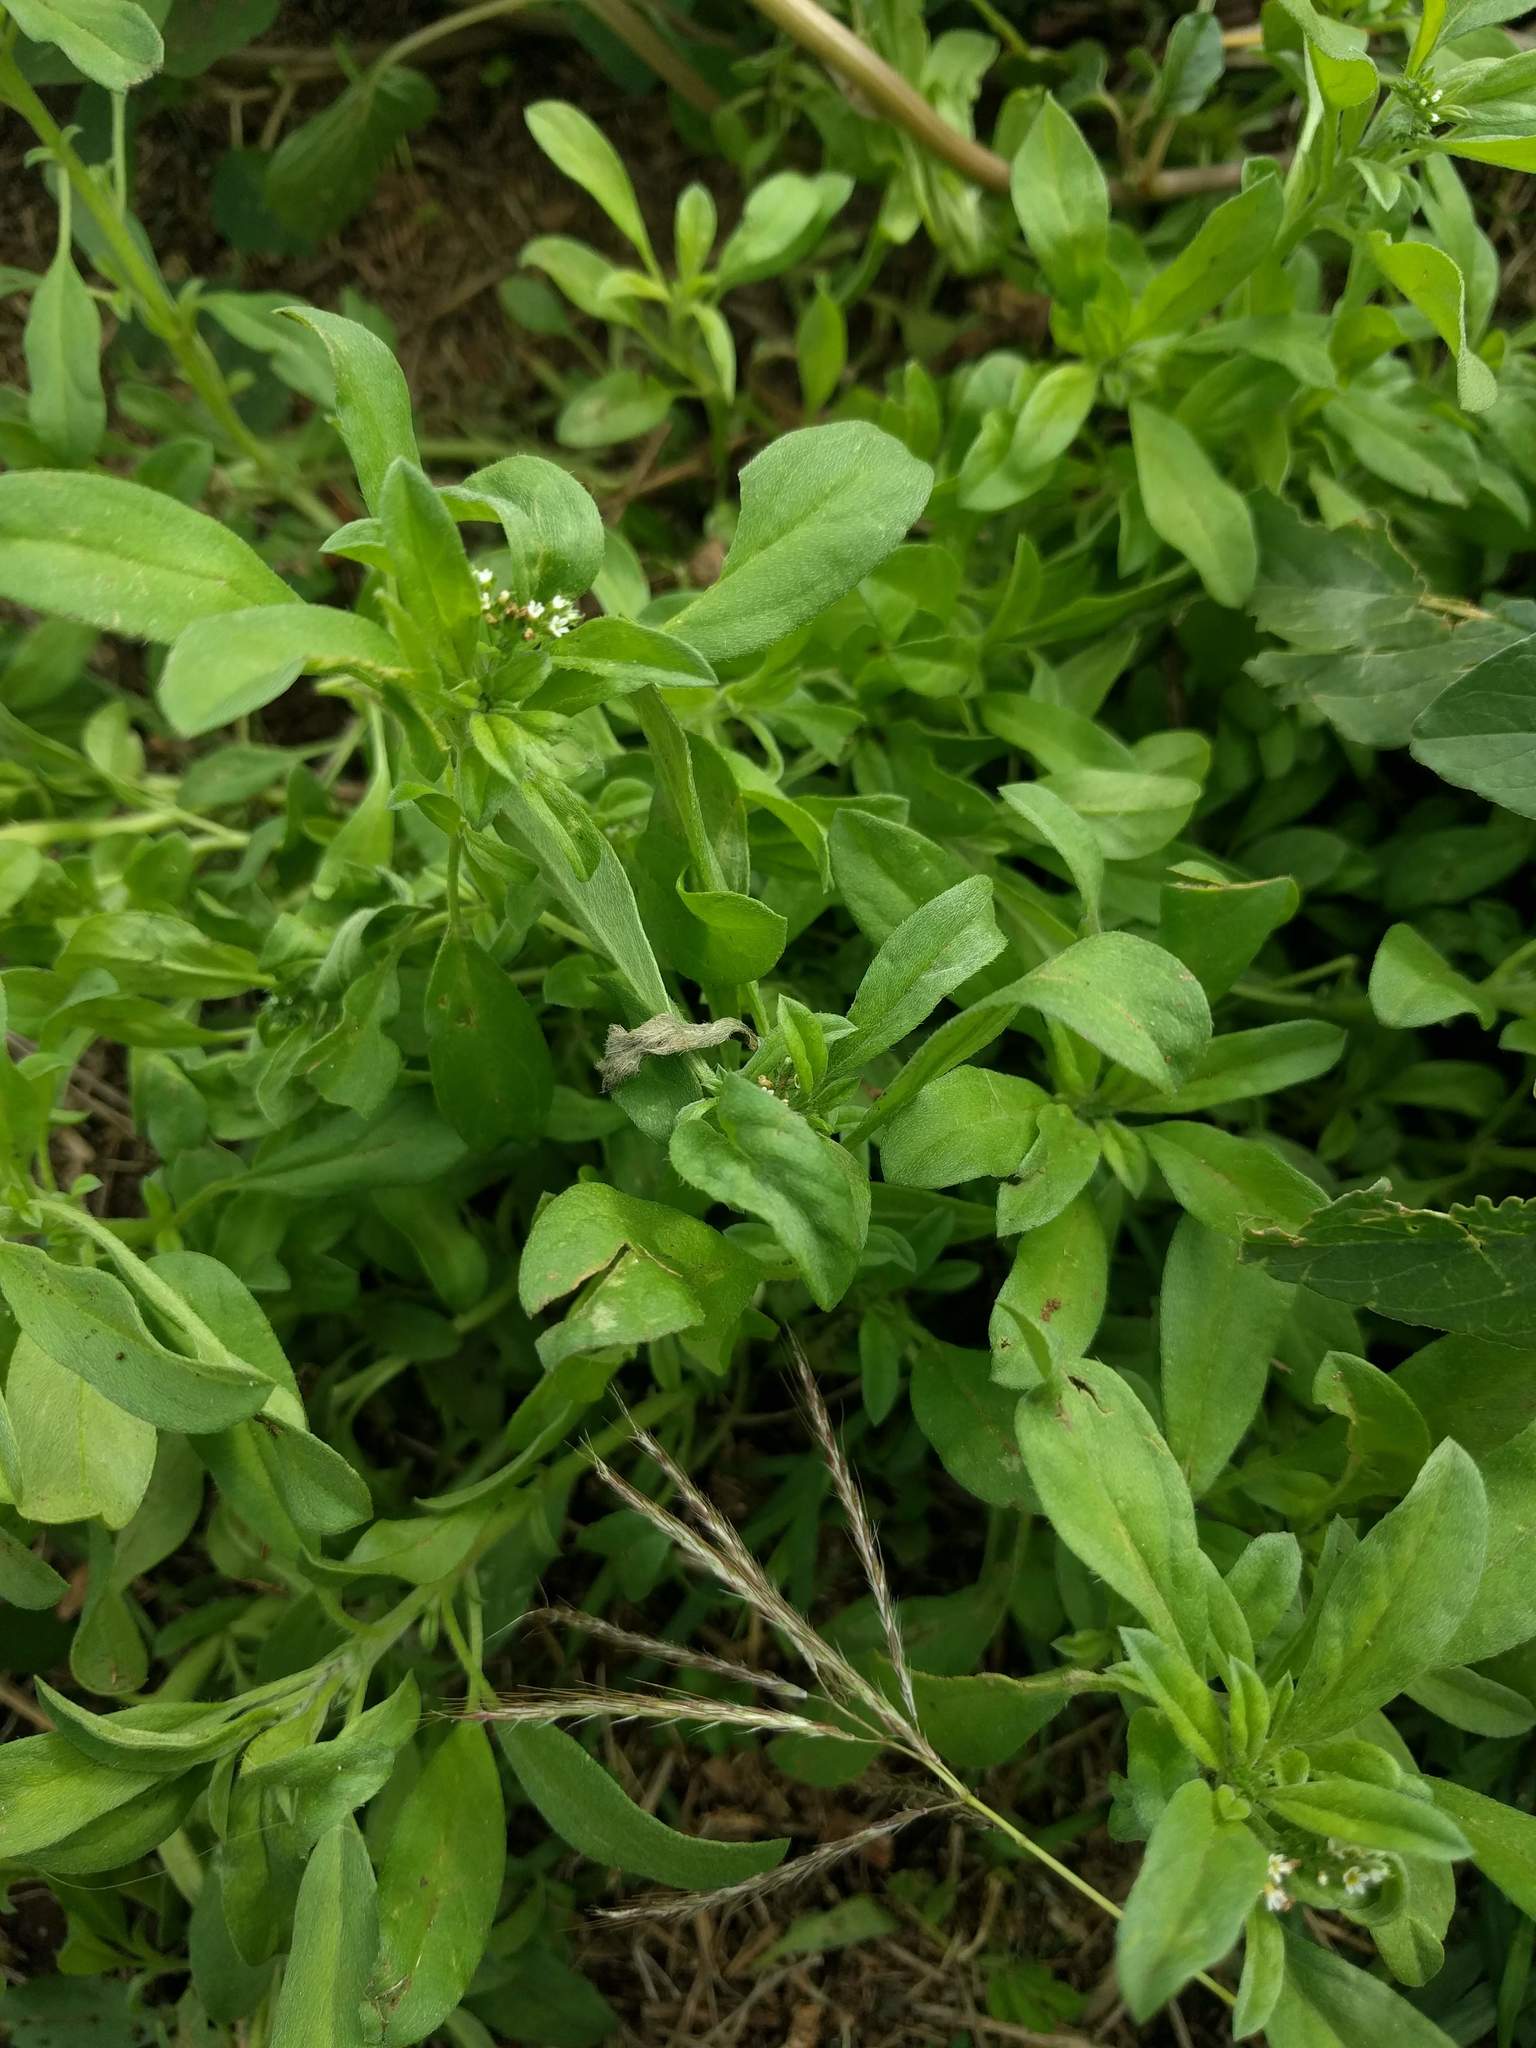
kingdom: Plantae
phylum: Tracheophyta
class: Magnoliopsida
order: Boraginales
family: Heliotropiaceae
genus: Euploca
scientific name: Euploca procumbens
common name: Fourspike heliotrope
